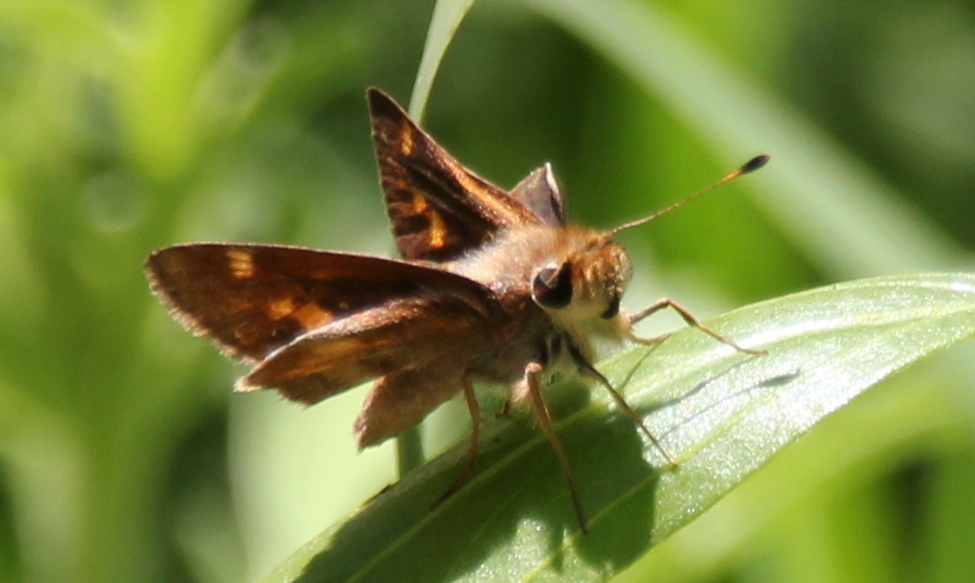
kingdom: Animalia
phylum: Arthropoda
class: Insecta
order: Lepidoptera
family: Hesperiidae
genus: Lon
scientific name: Lon melane
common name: Umber skipper
